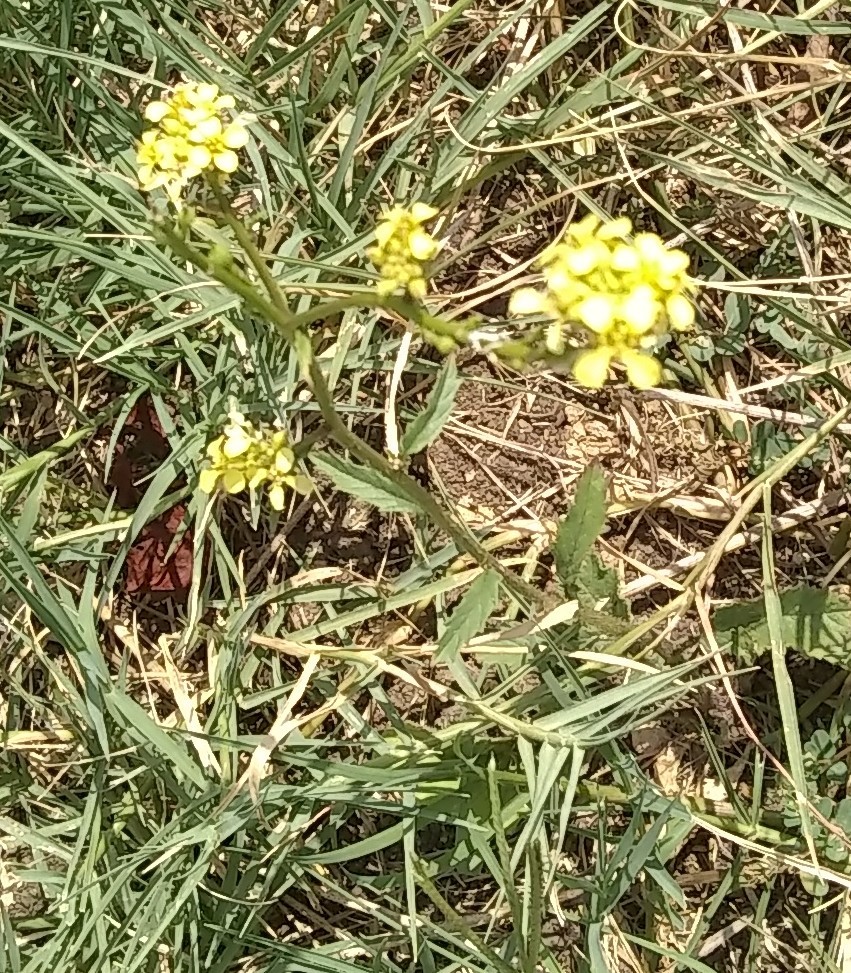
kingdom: Plantae
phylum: Tracheophyta
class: Magnoliopsida
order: Brassicales
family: Brassicaceae
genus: Rapistrum
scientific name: Rapistrum rugosum
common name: Annual bastardcabbage
